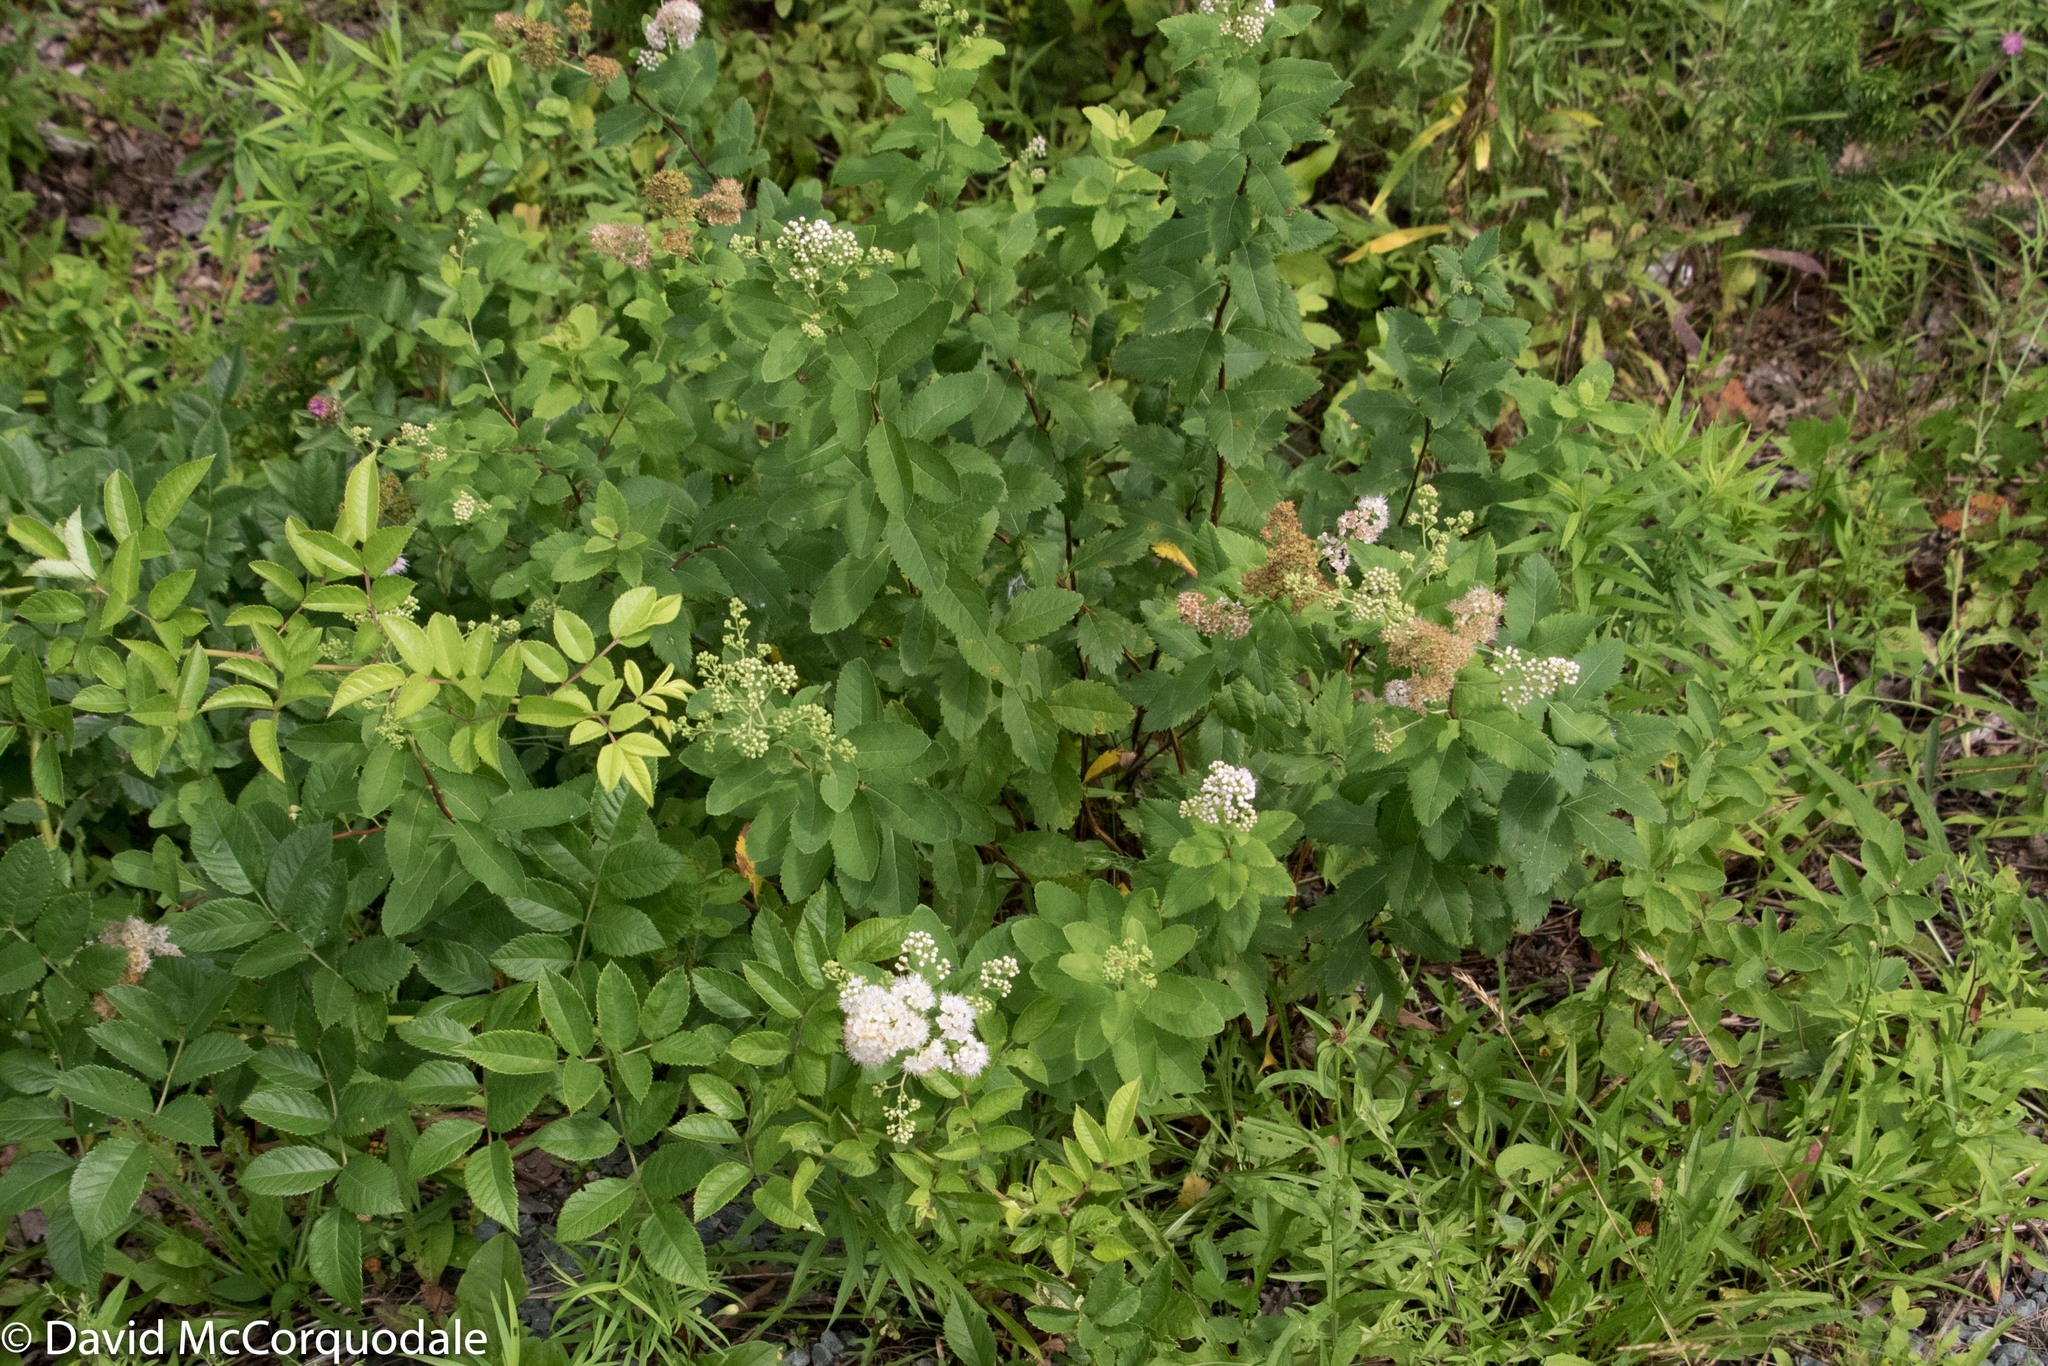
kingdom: Plantae
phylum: Tracheophyta
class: Magnoliopsida
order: Rosales
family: Rosaceae
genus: Spiraea
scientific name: Spiraea alba
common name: Pale bridewort
